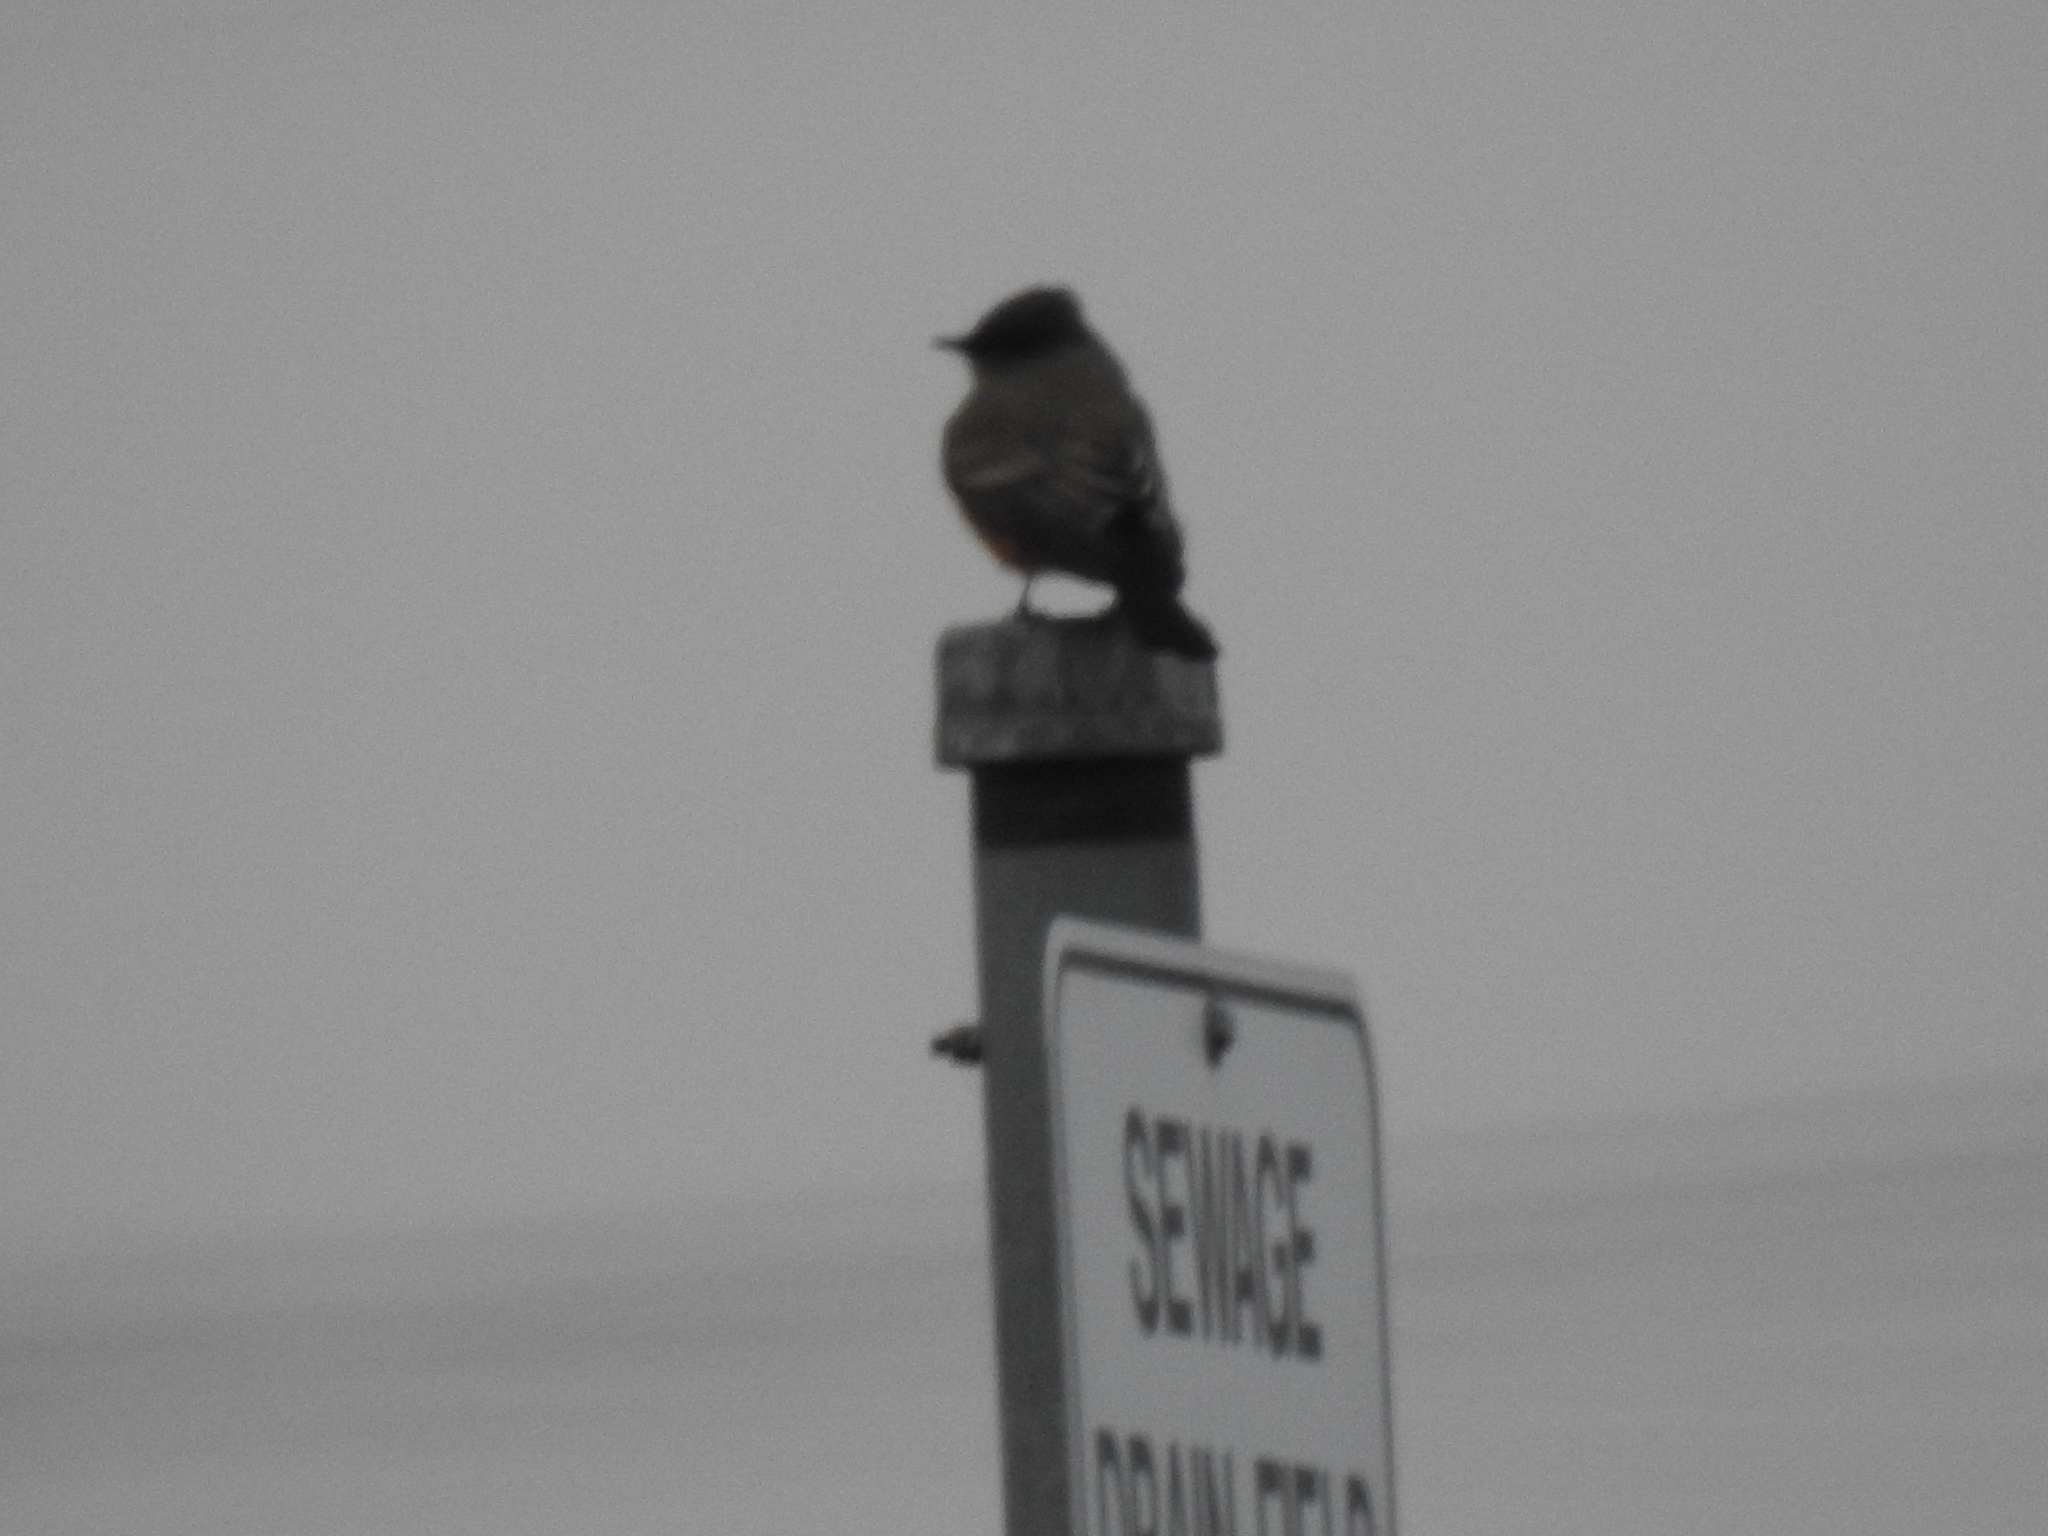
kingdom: Animalia
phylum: Chordata
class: Aves
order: Passeriformes
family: Tyrannidae
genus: Sayornis
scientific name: Sayornis saya
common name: Say's phoebe
